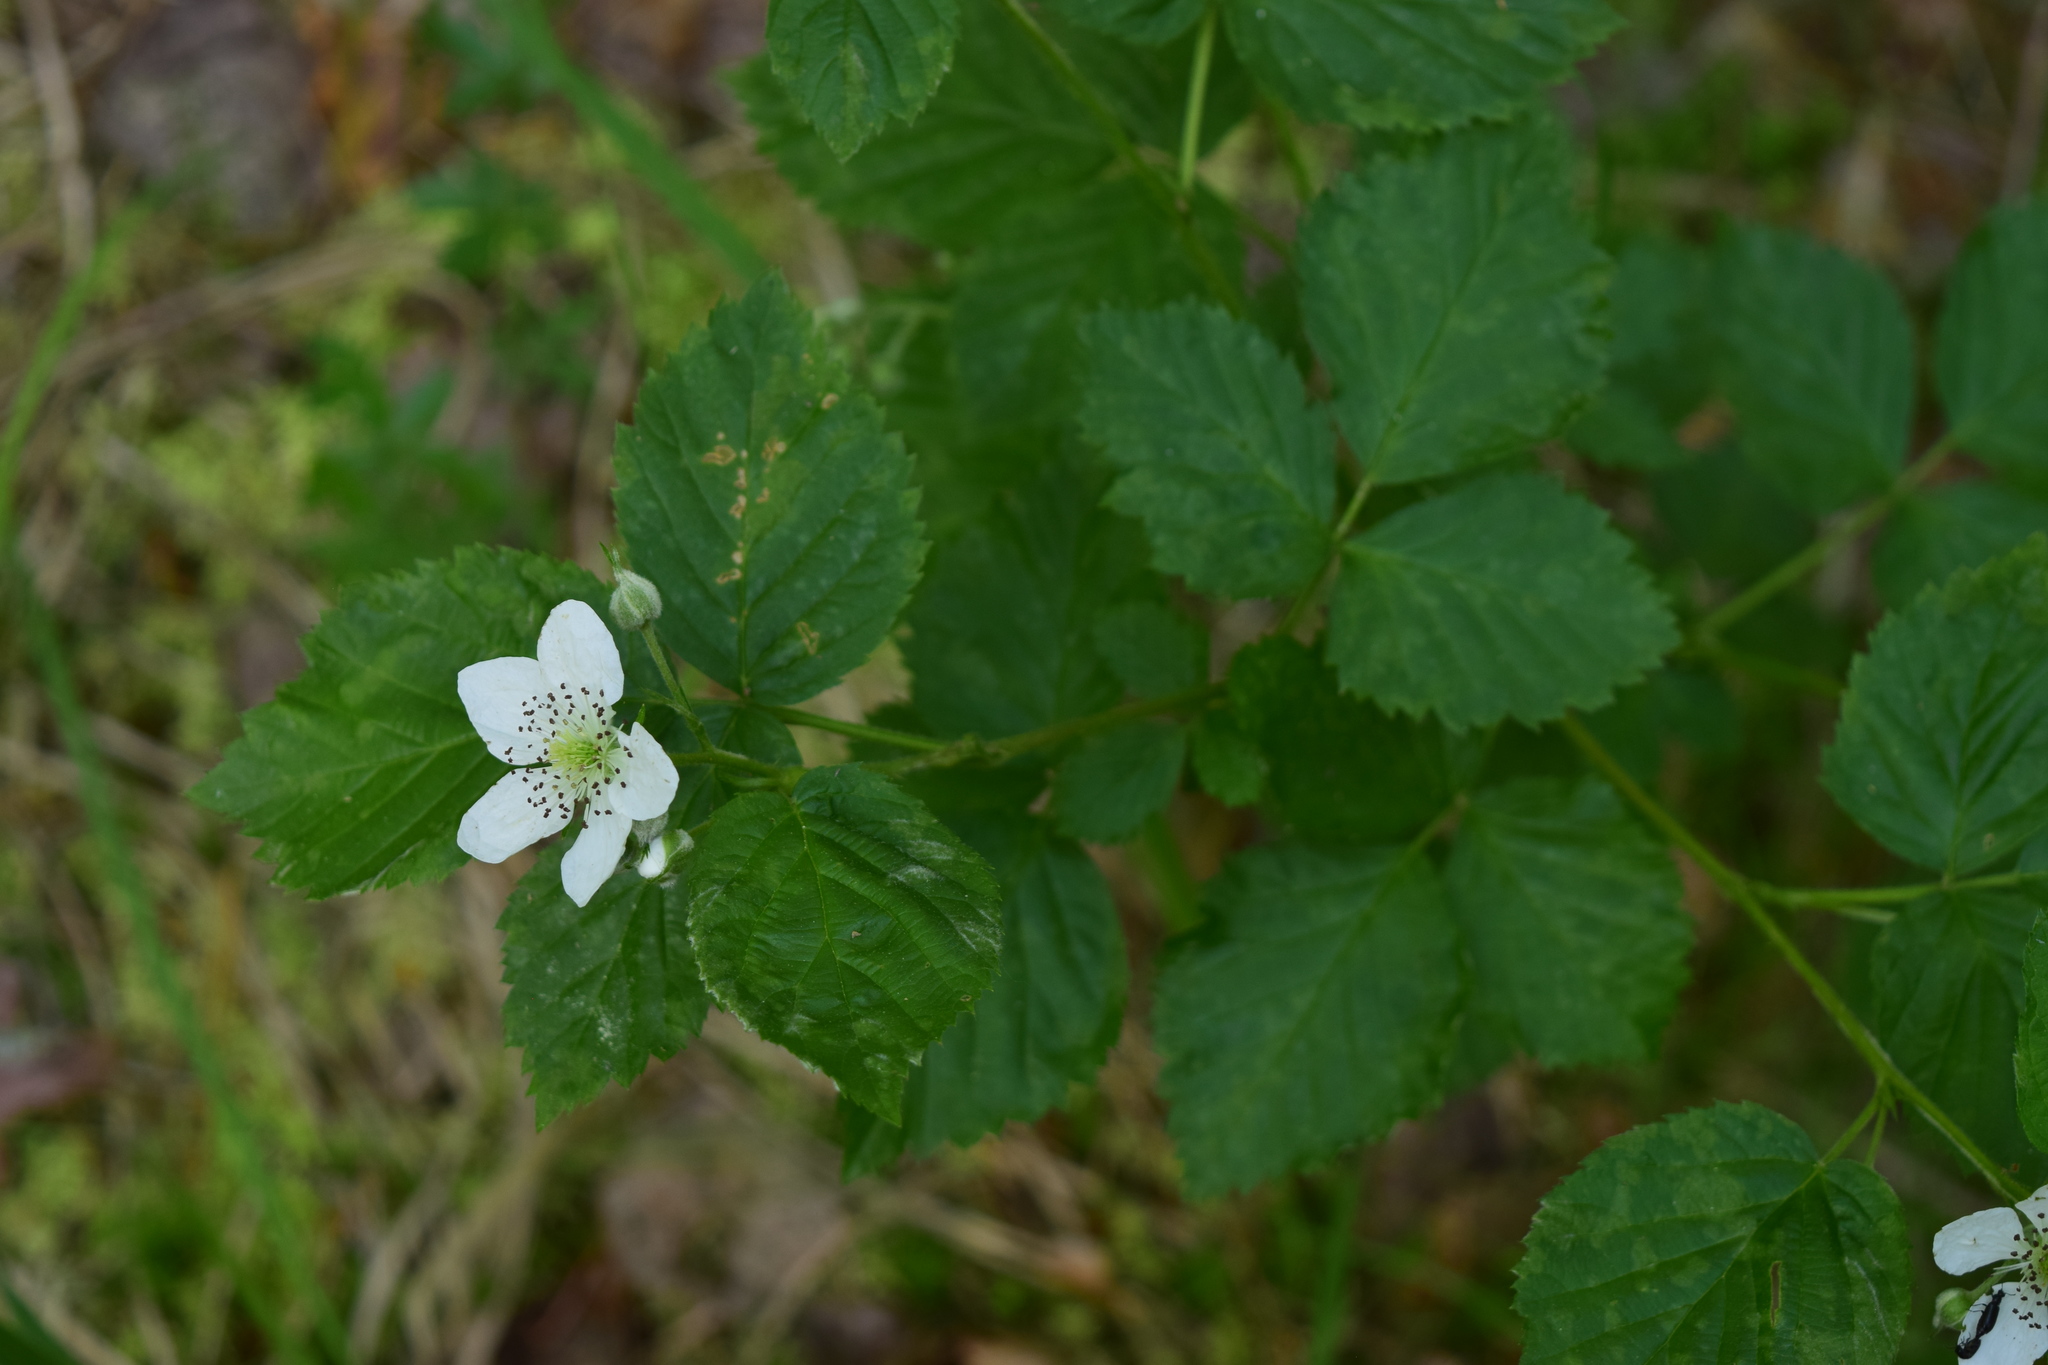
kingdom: Plantae
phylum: Tracheophyta
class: Magnoliopsida
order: Rosales
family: Rosaceae
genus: Rubus
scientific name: Rubus polonicus
